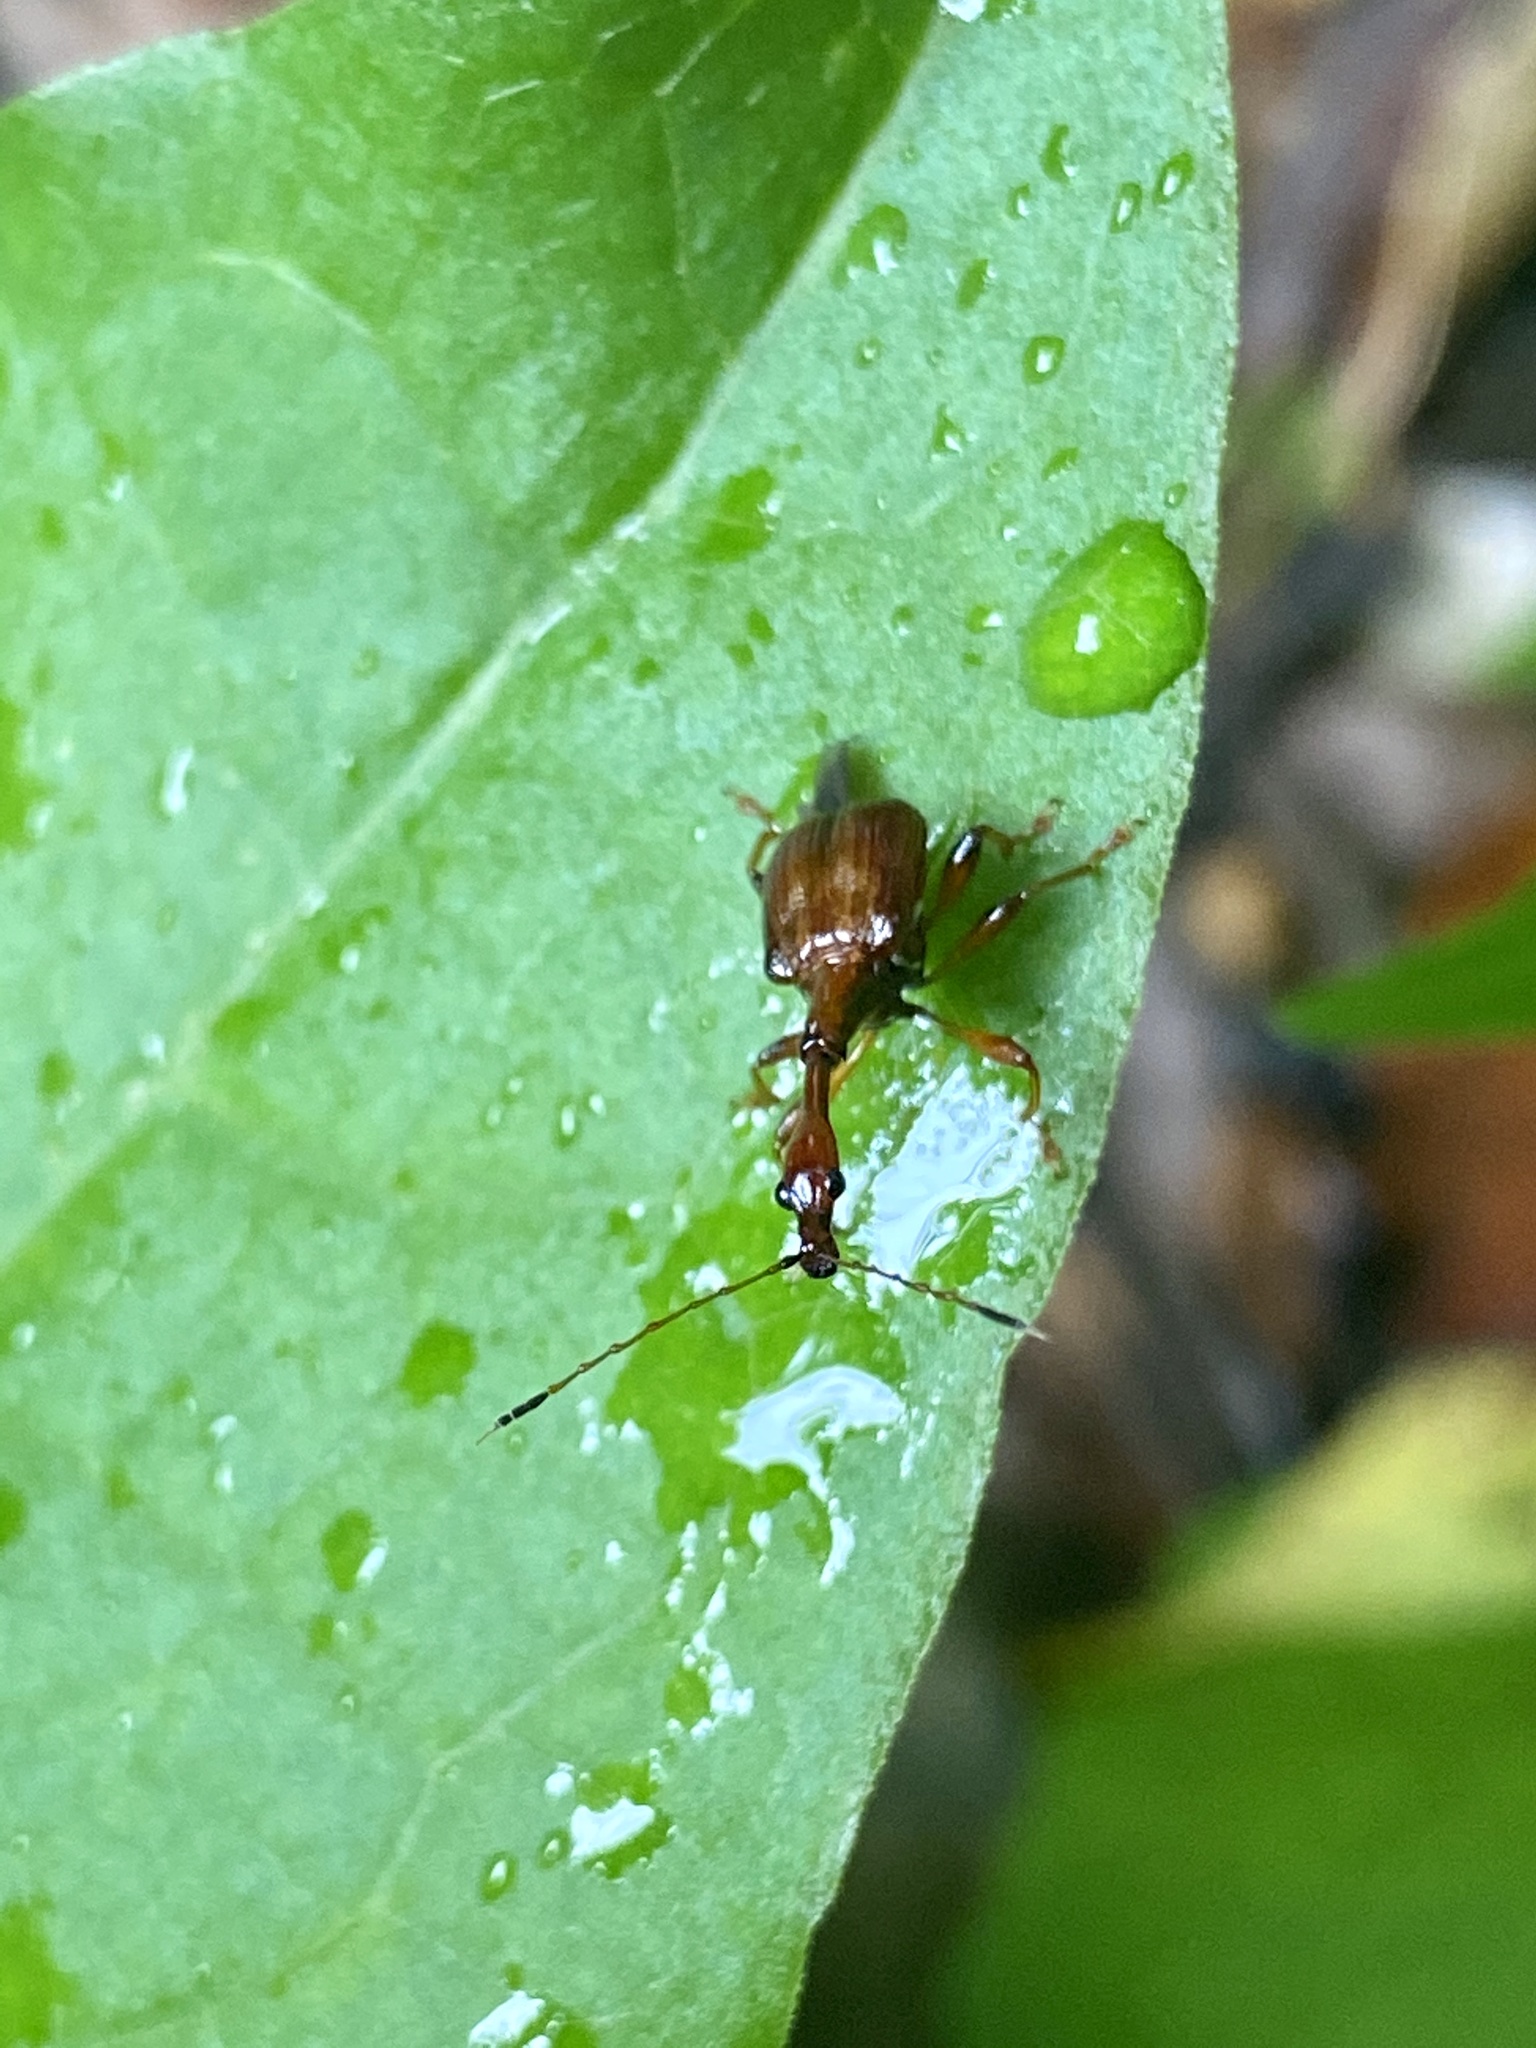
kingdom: Animalia
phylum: Arthropoda
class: Insecta
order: Coleoptera
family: Attelabidae
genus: Paratrachelophorus
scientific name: Paratrachelophorus longicornis
